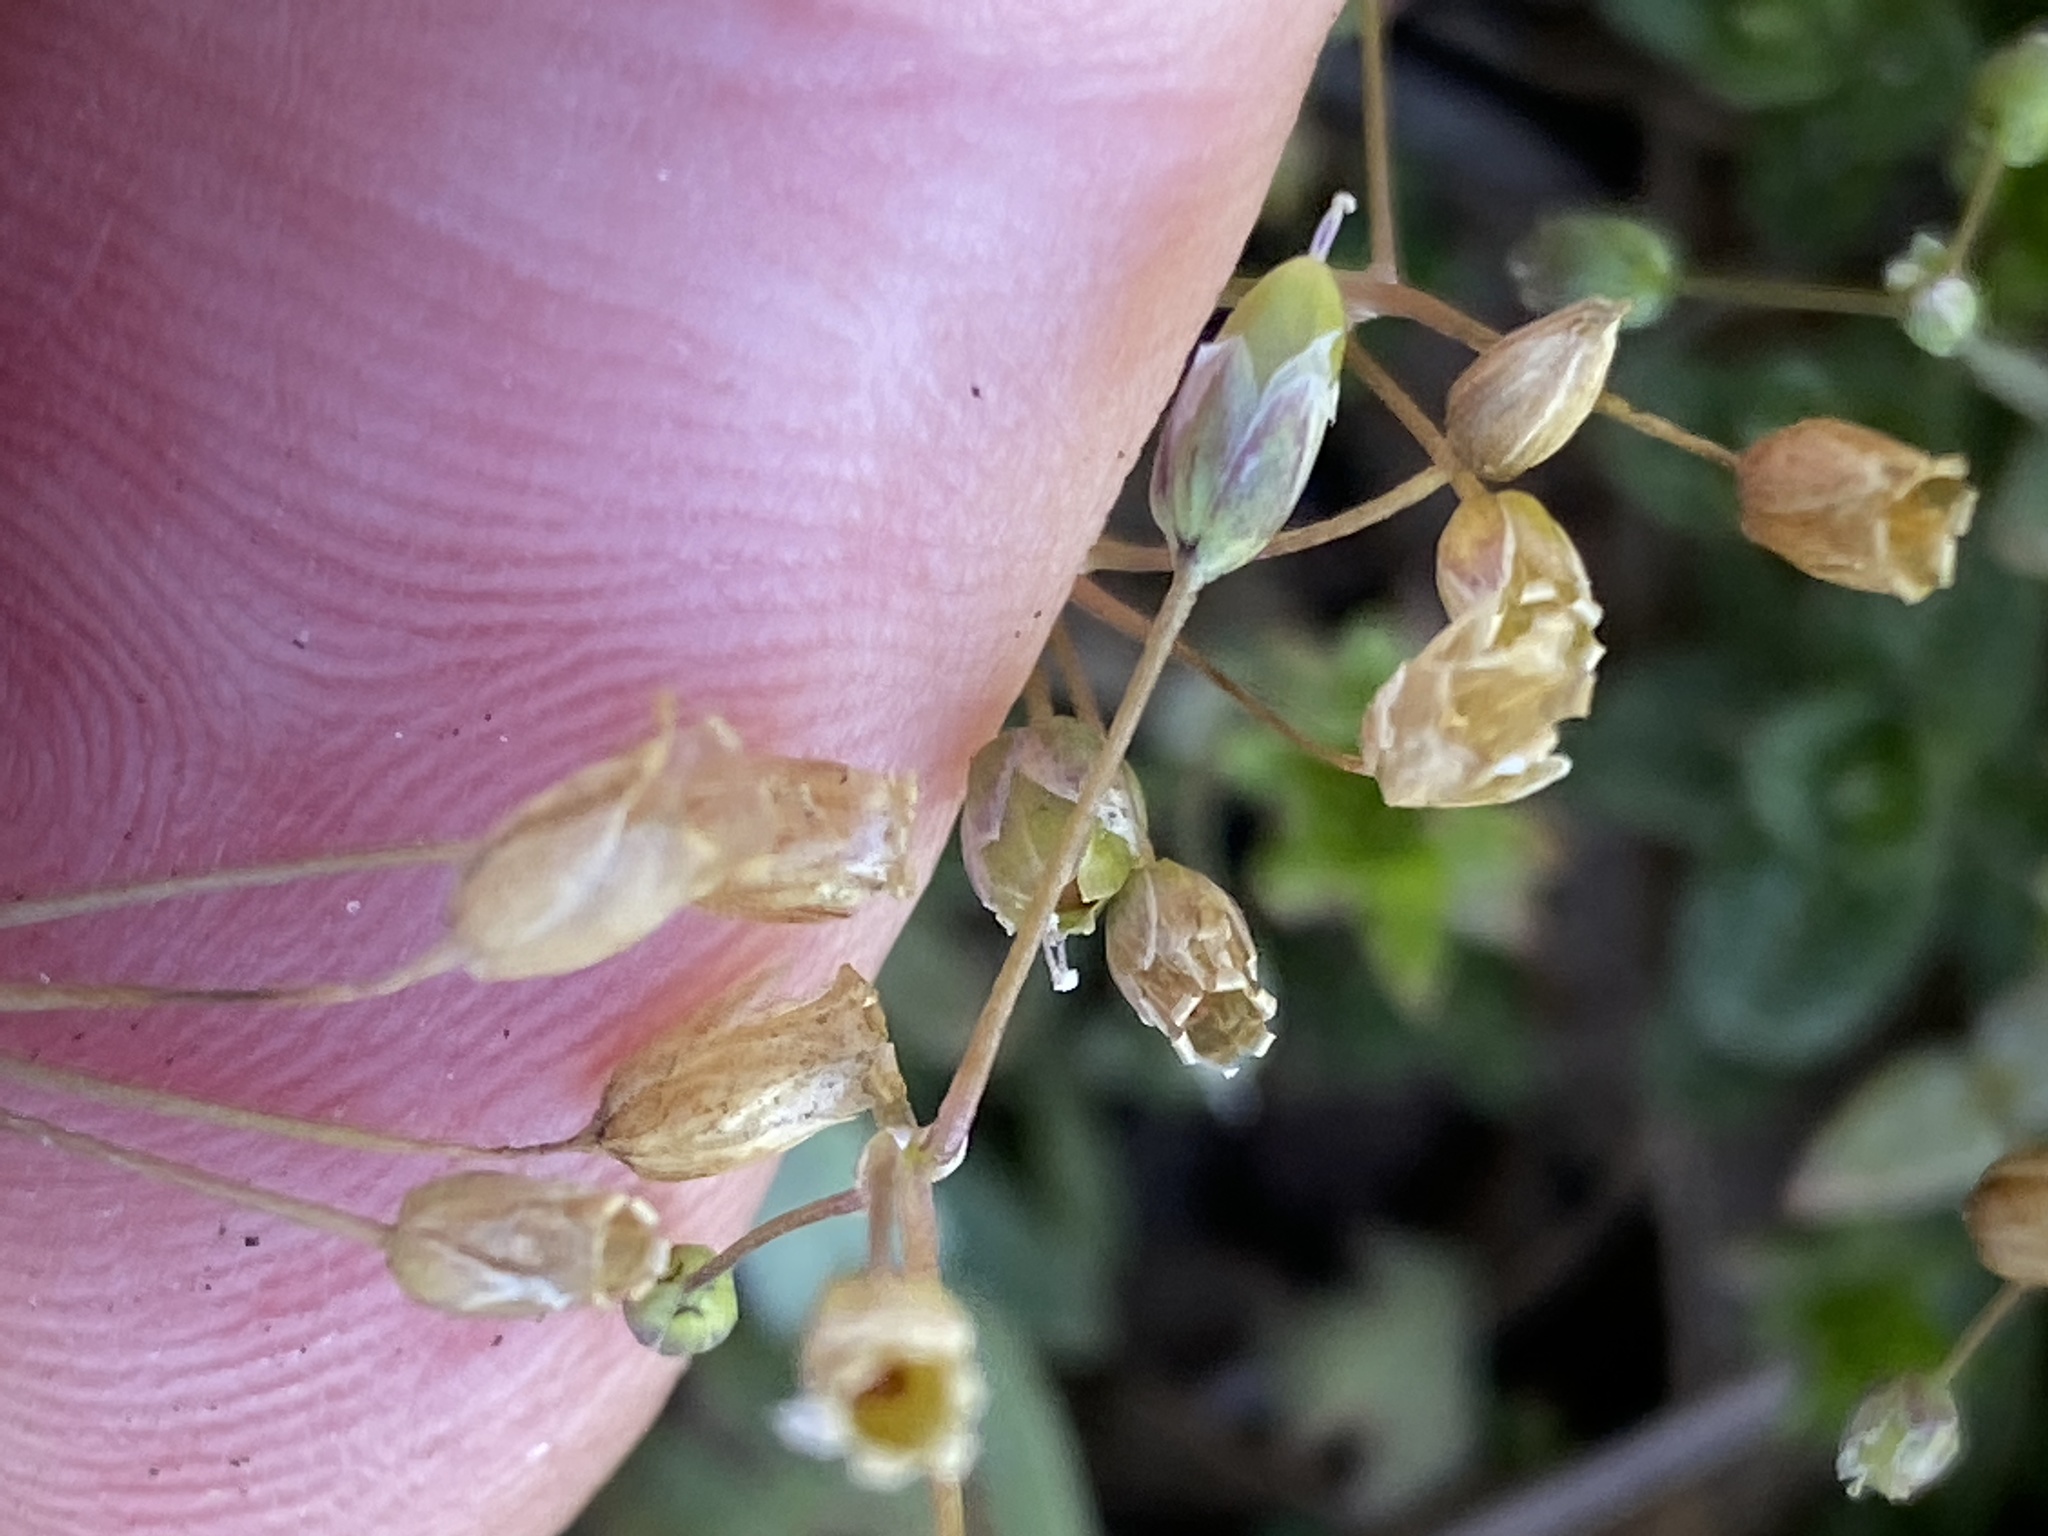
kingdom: Plantae
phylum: Tracheophyta
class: Magnoliopsida
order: Caryophyllales
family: Caryophyllaceae
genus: Holosteum
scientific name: Holosteum umbellatum
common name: Jagged chickweed
